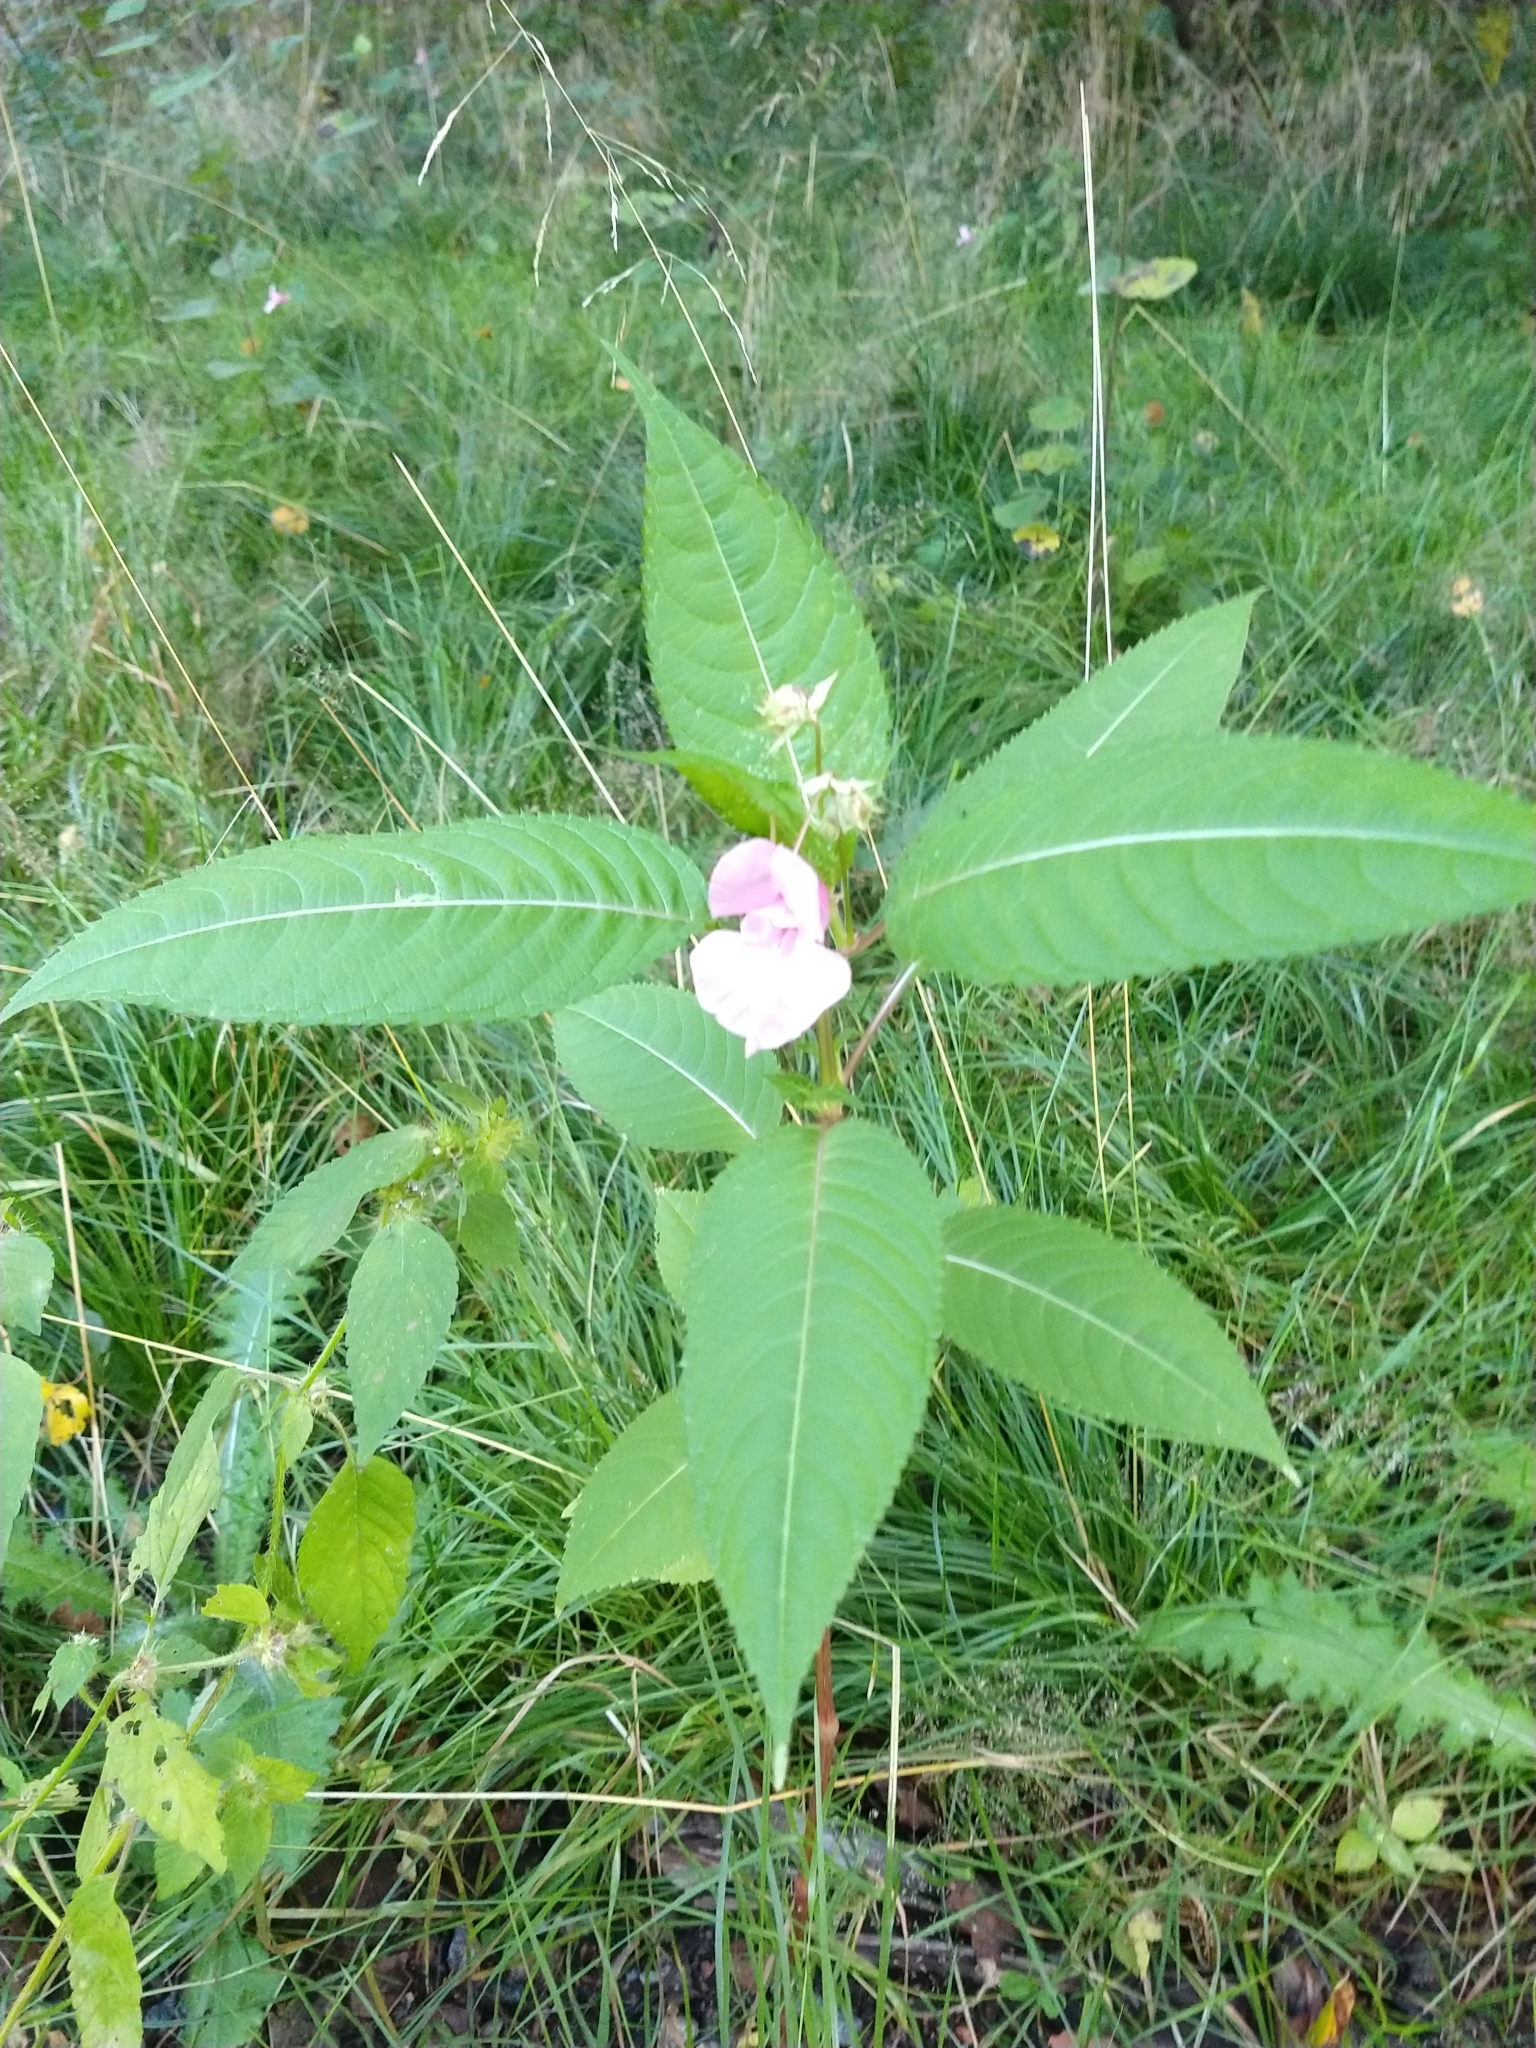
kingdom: Plantae
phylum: Tracheophyta
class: Magnoliopsida
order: Ericales
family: Balsaminaceae
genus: Impatiens
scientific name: Impatiens glandulifera
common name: Himalayan balsam
